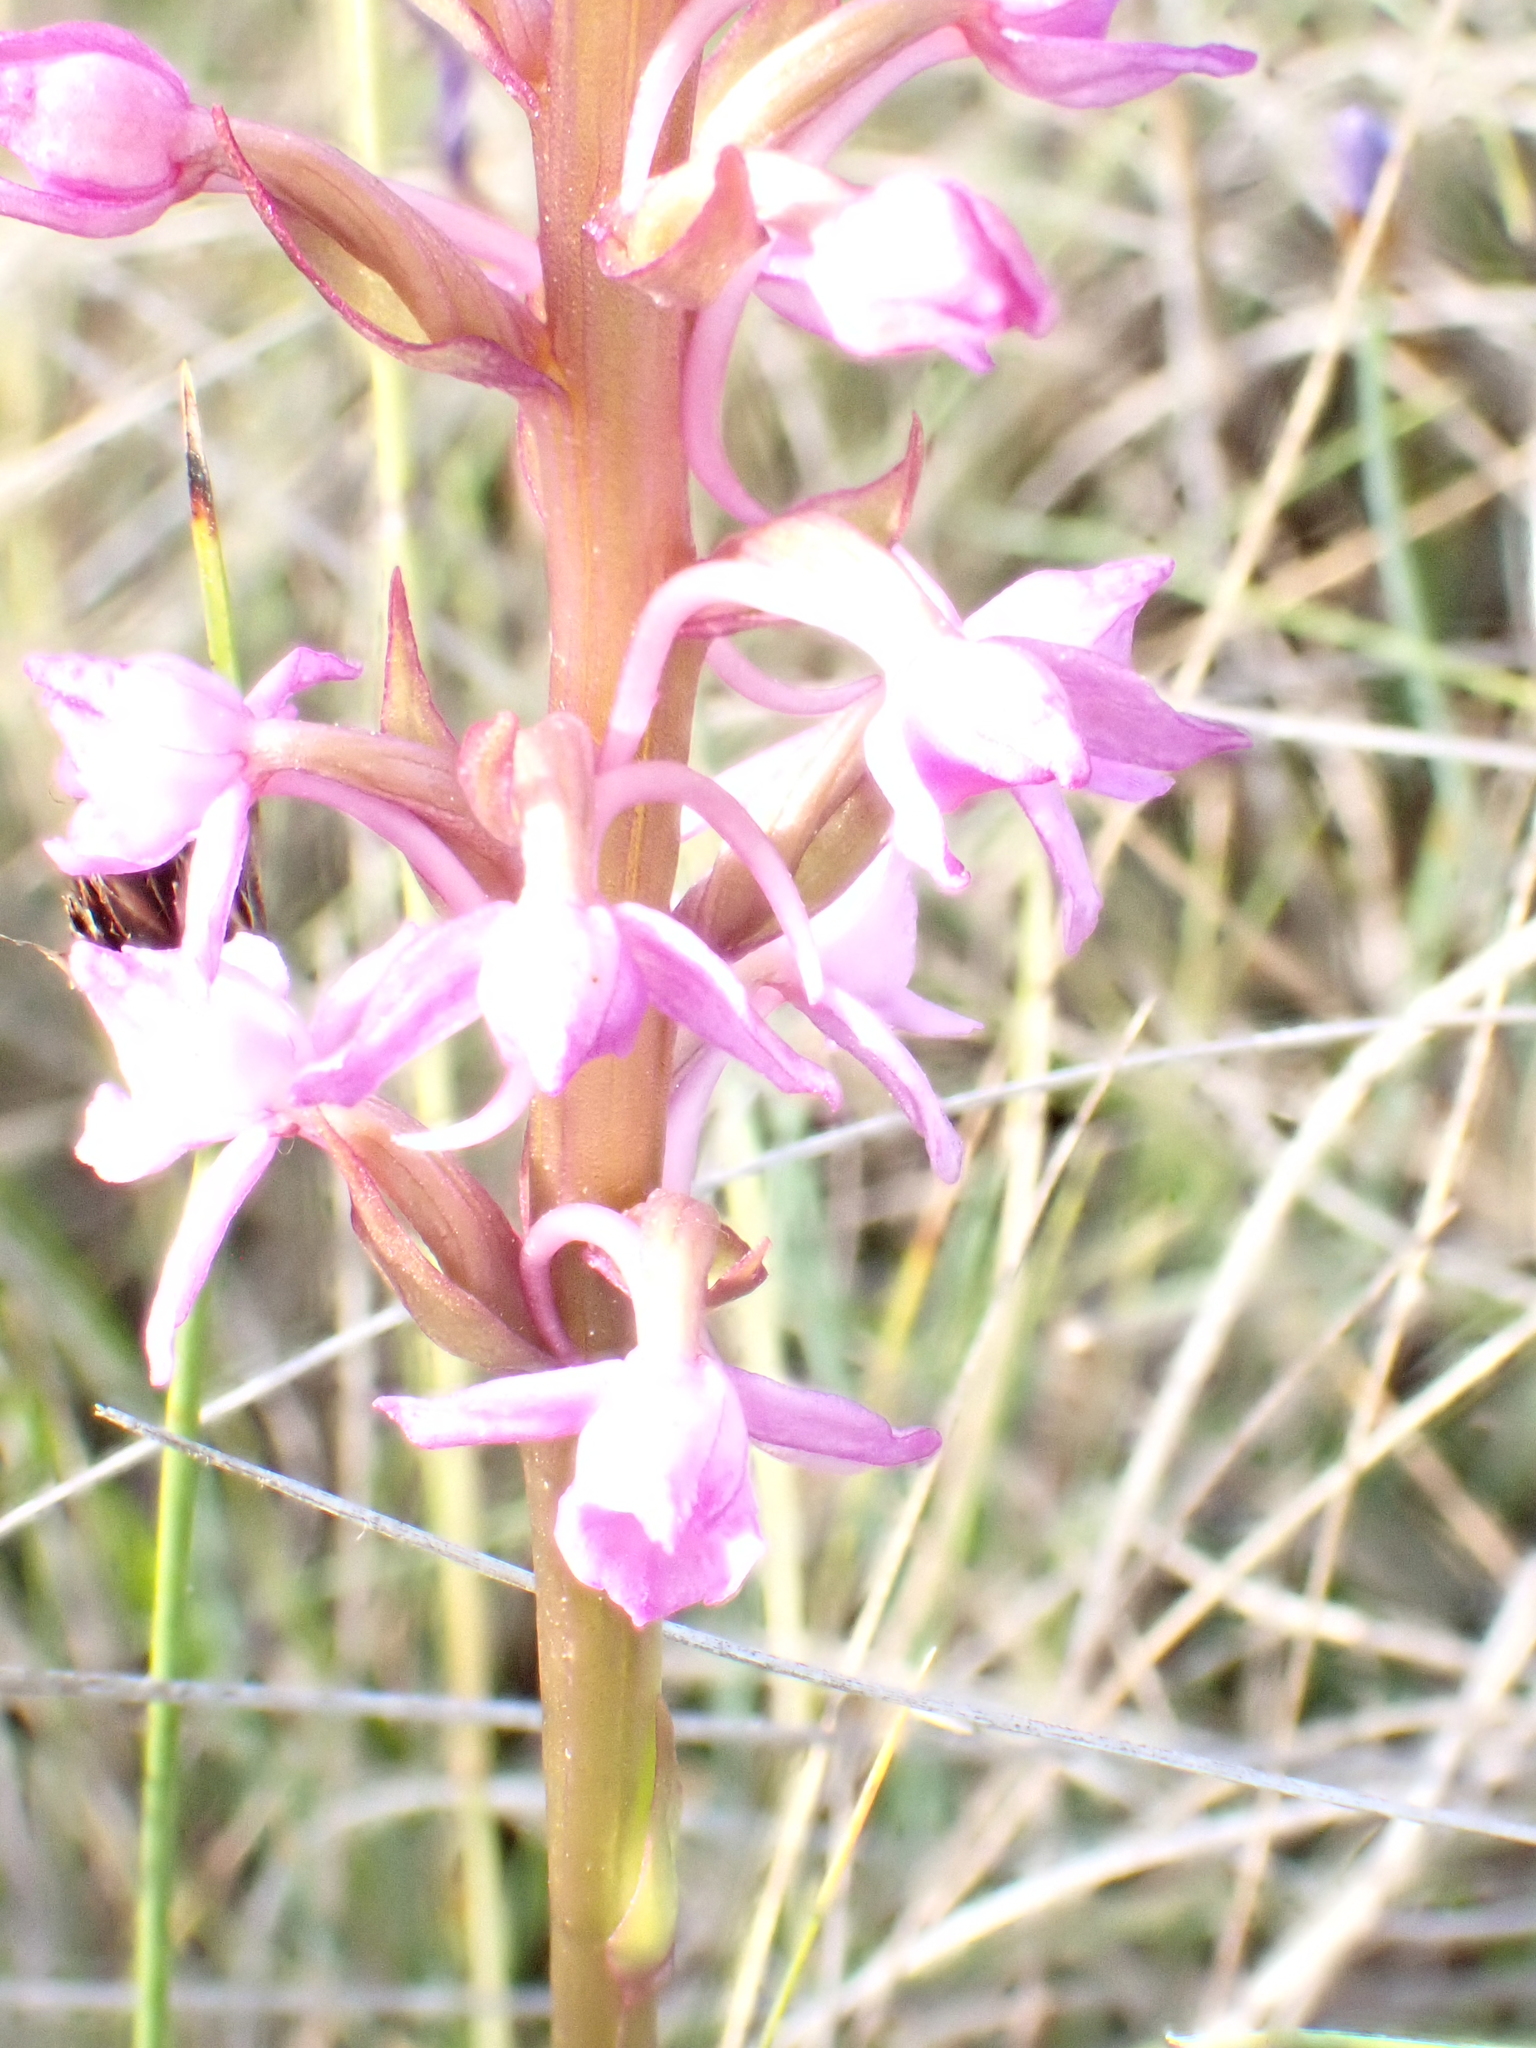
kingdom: Plantae
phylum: Tracheophyta
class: Liliopsida
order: Asparagales
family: Orchidaceae
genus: Gymnadenia
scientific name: Gymnadenia conopsea
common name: Fragrant orchid
